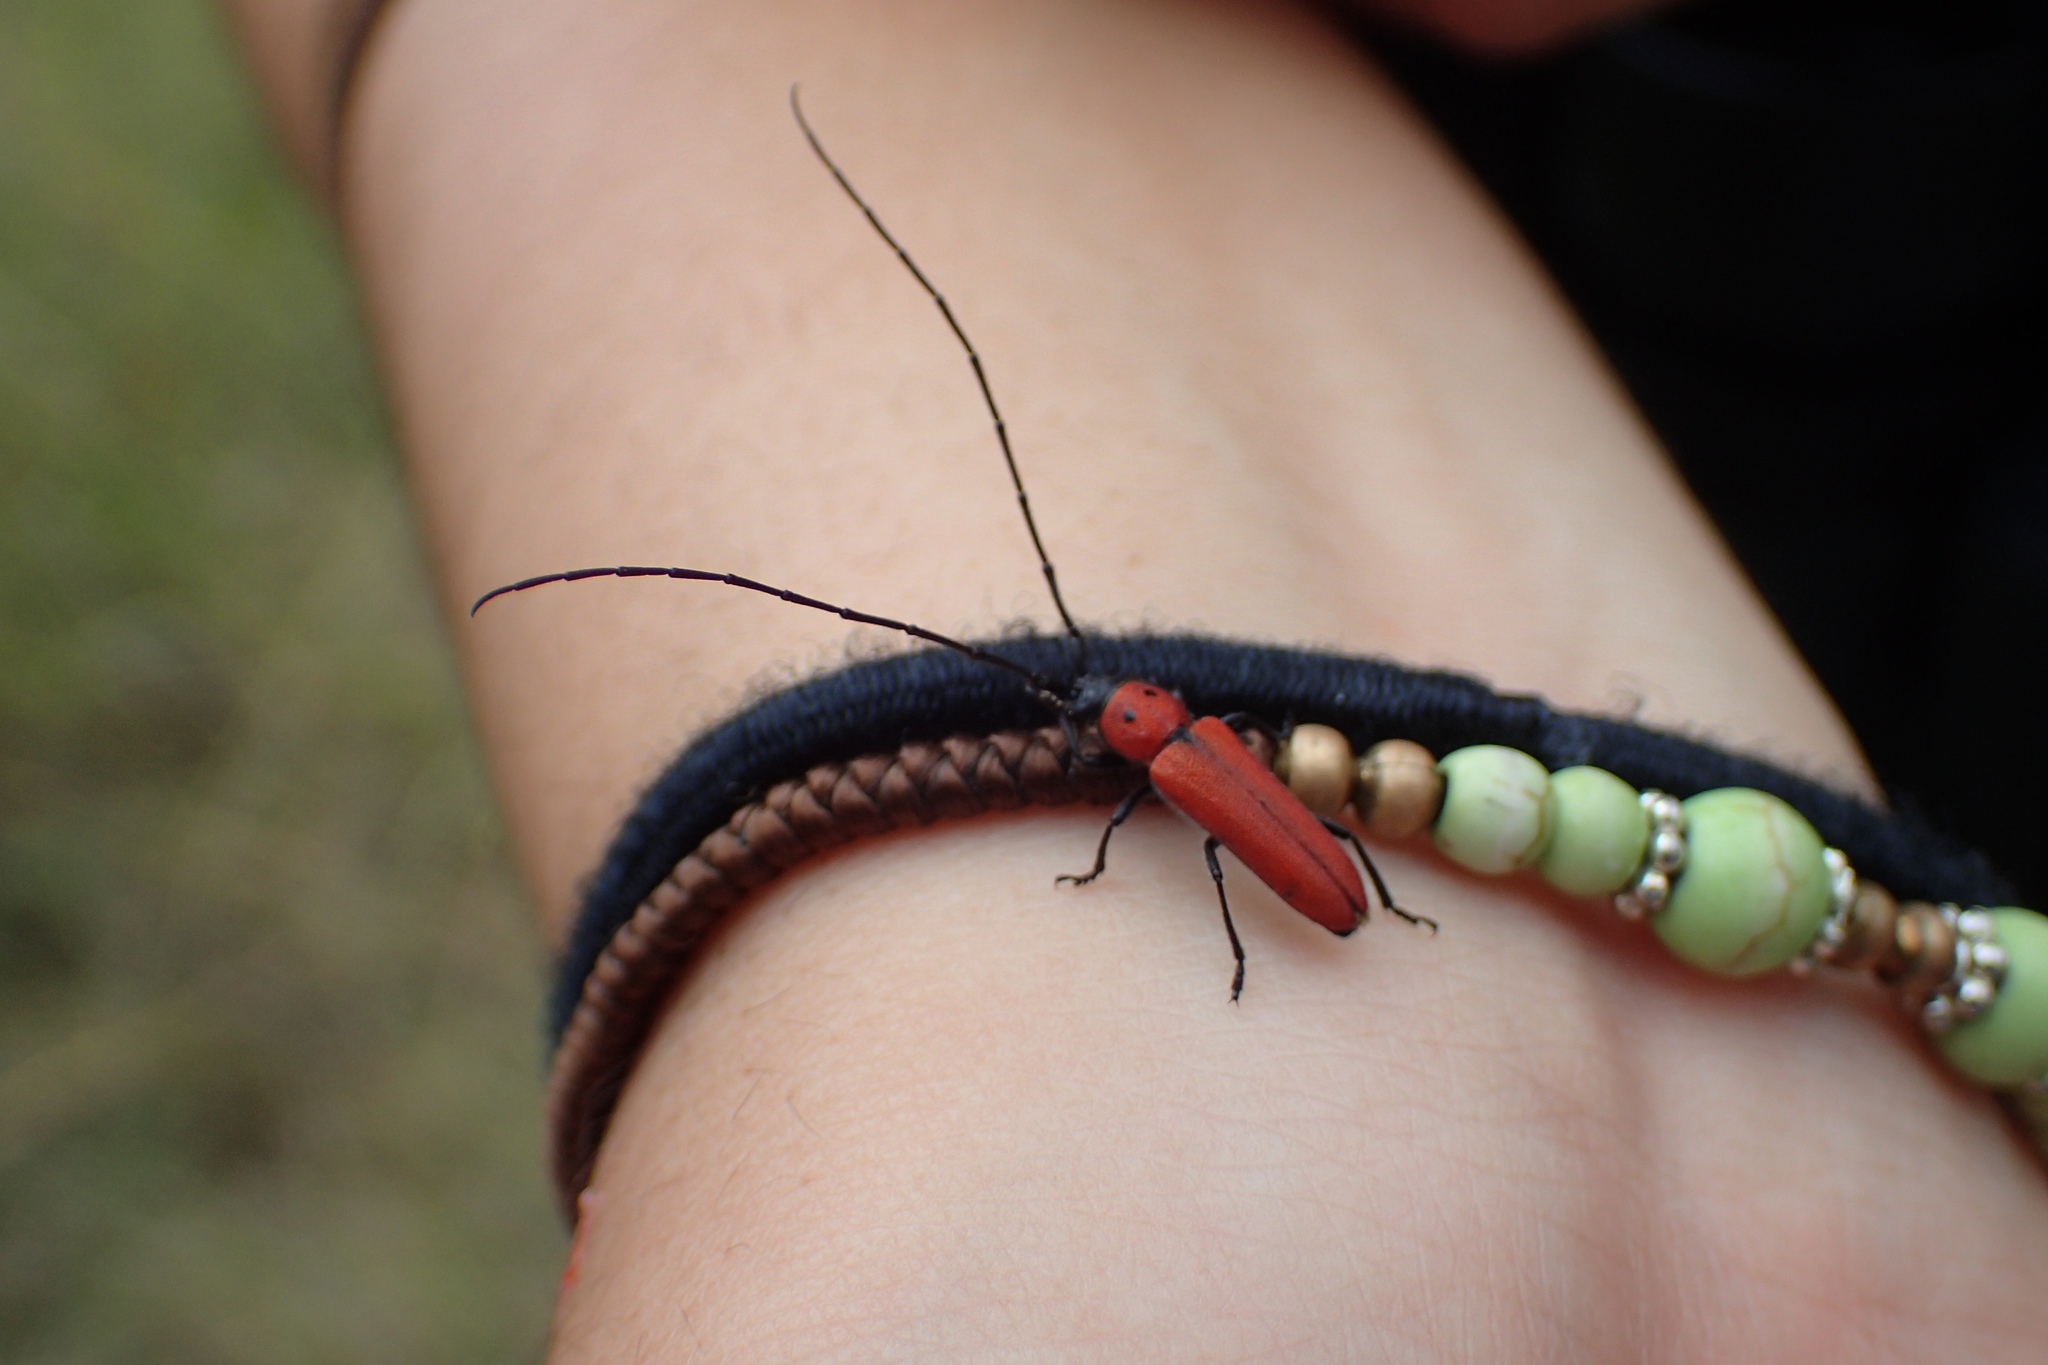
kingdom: Animalia
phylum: Arthropoda
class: Insecta
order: Coleoptera
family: Cerambycidae
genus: Tylosis
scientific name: Tylosis oculatus
